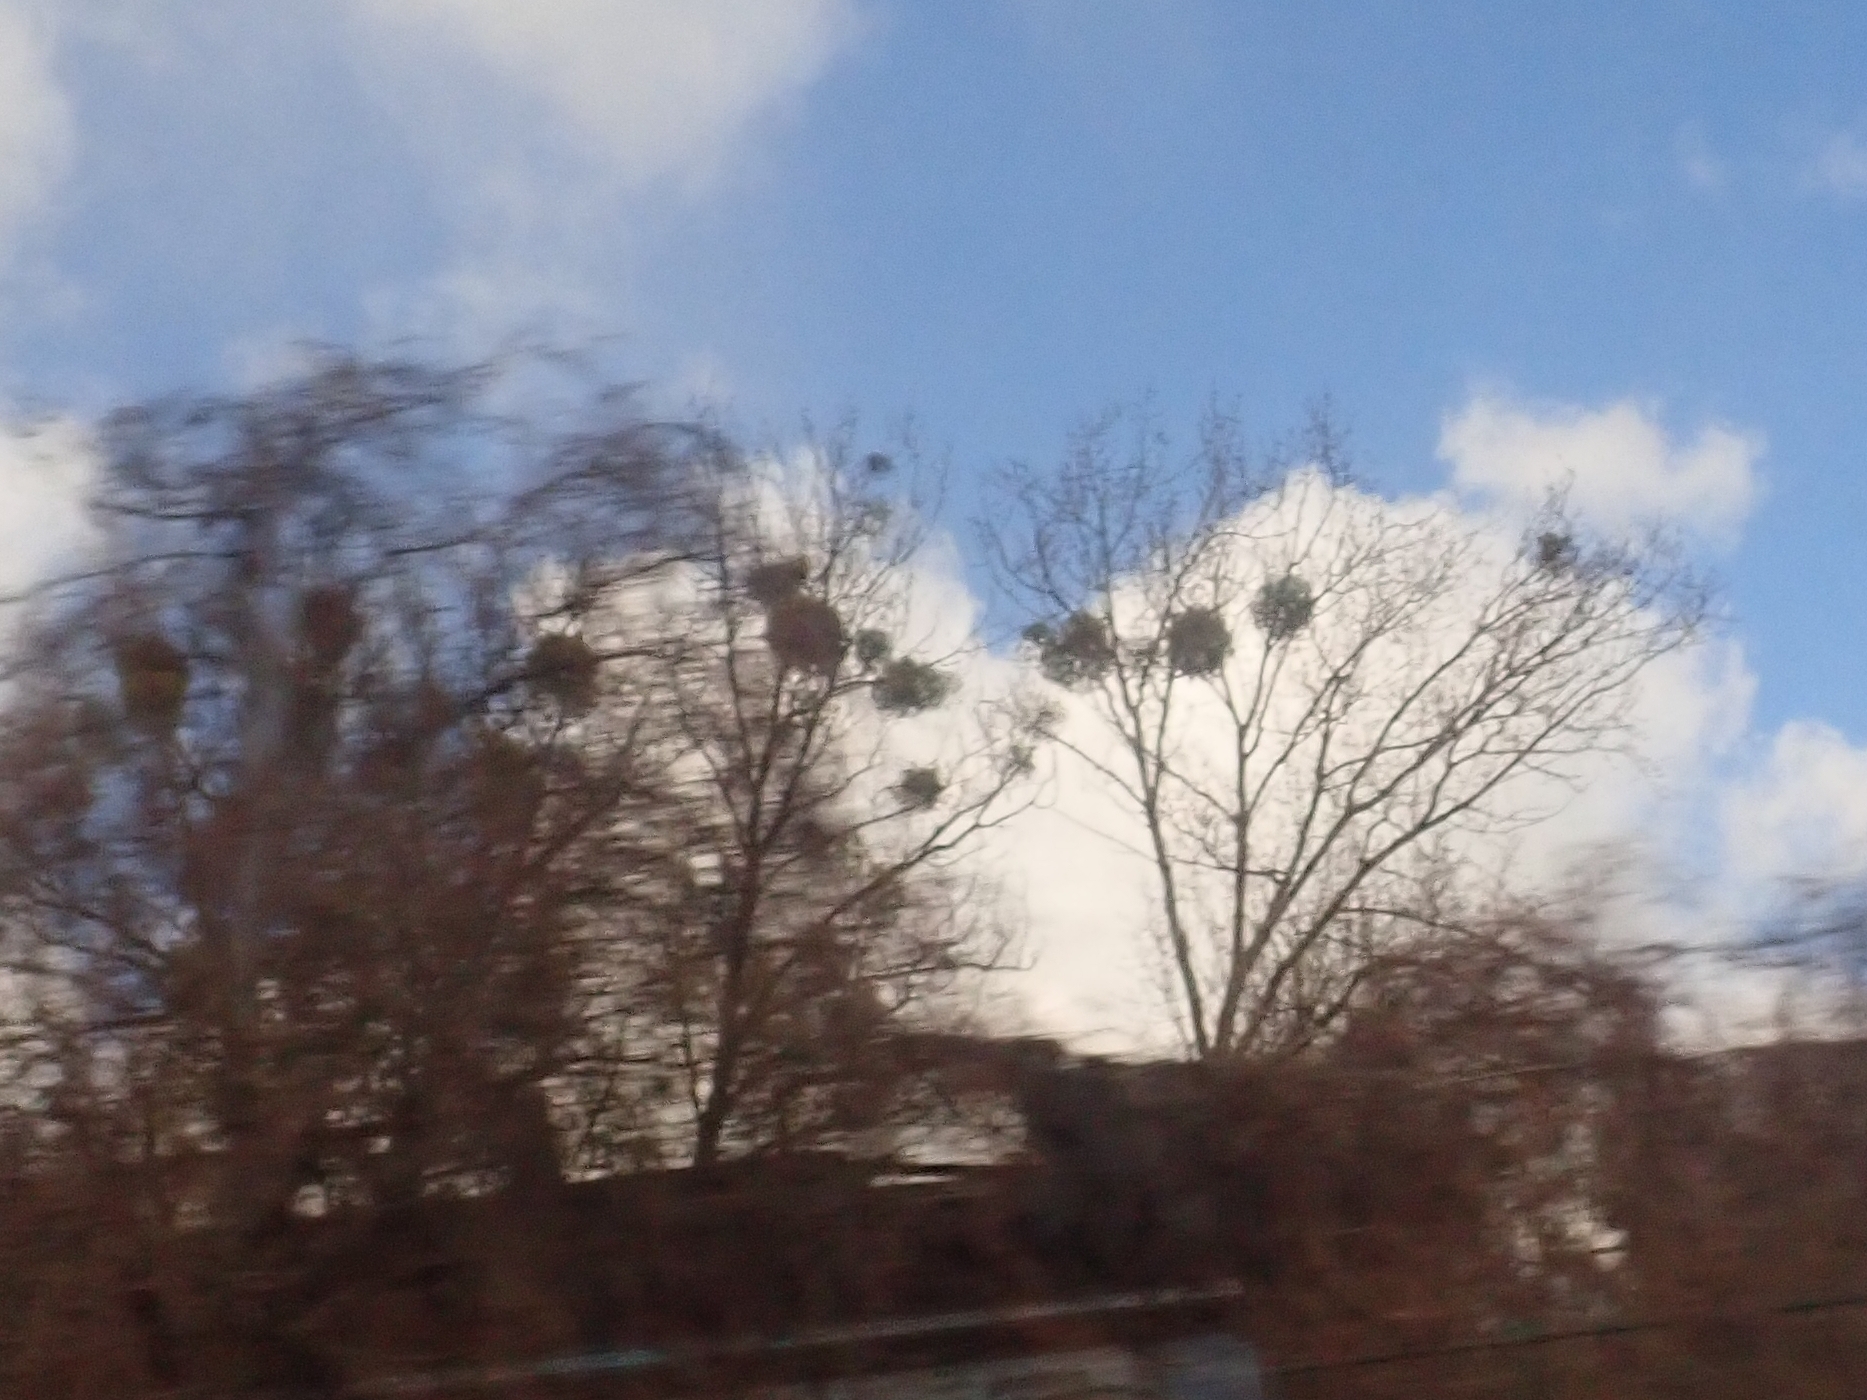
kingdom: Plantae
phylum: Tracheophyta
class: Magnoliopsida
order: Santalales
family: Viscaceae
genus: Viscum
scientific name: Viscum album
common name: Mistletoe
